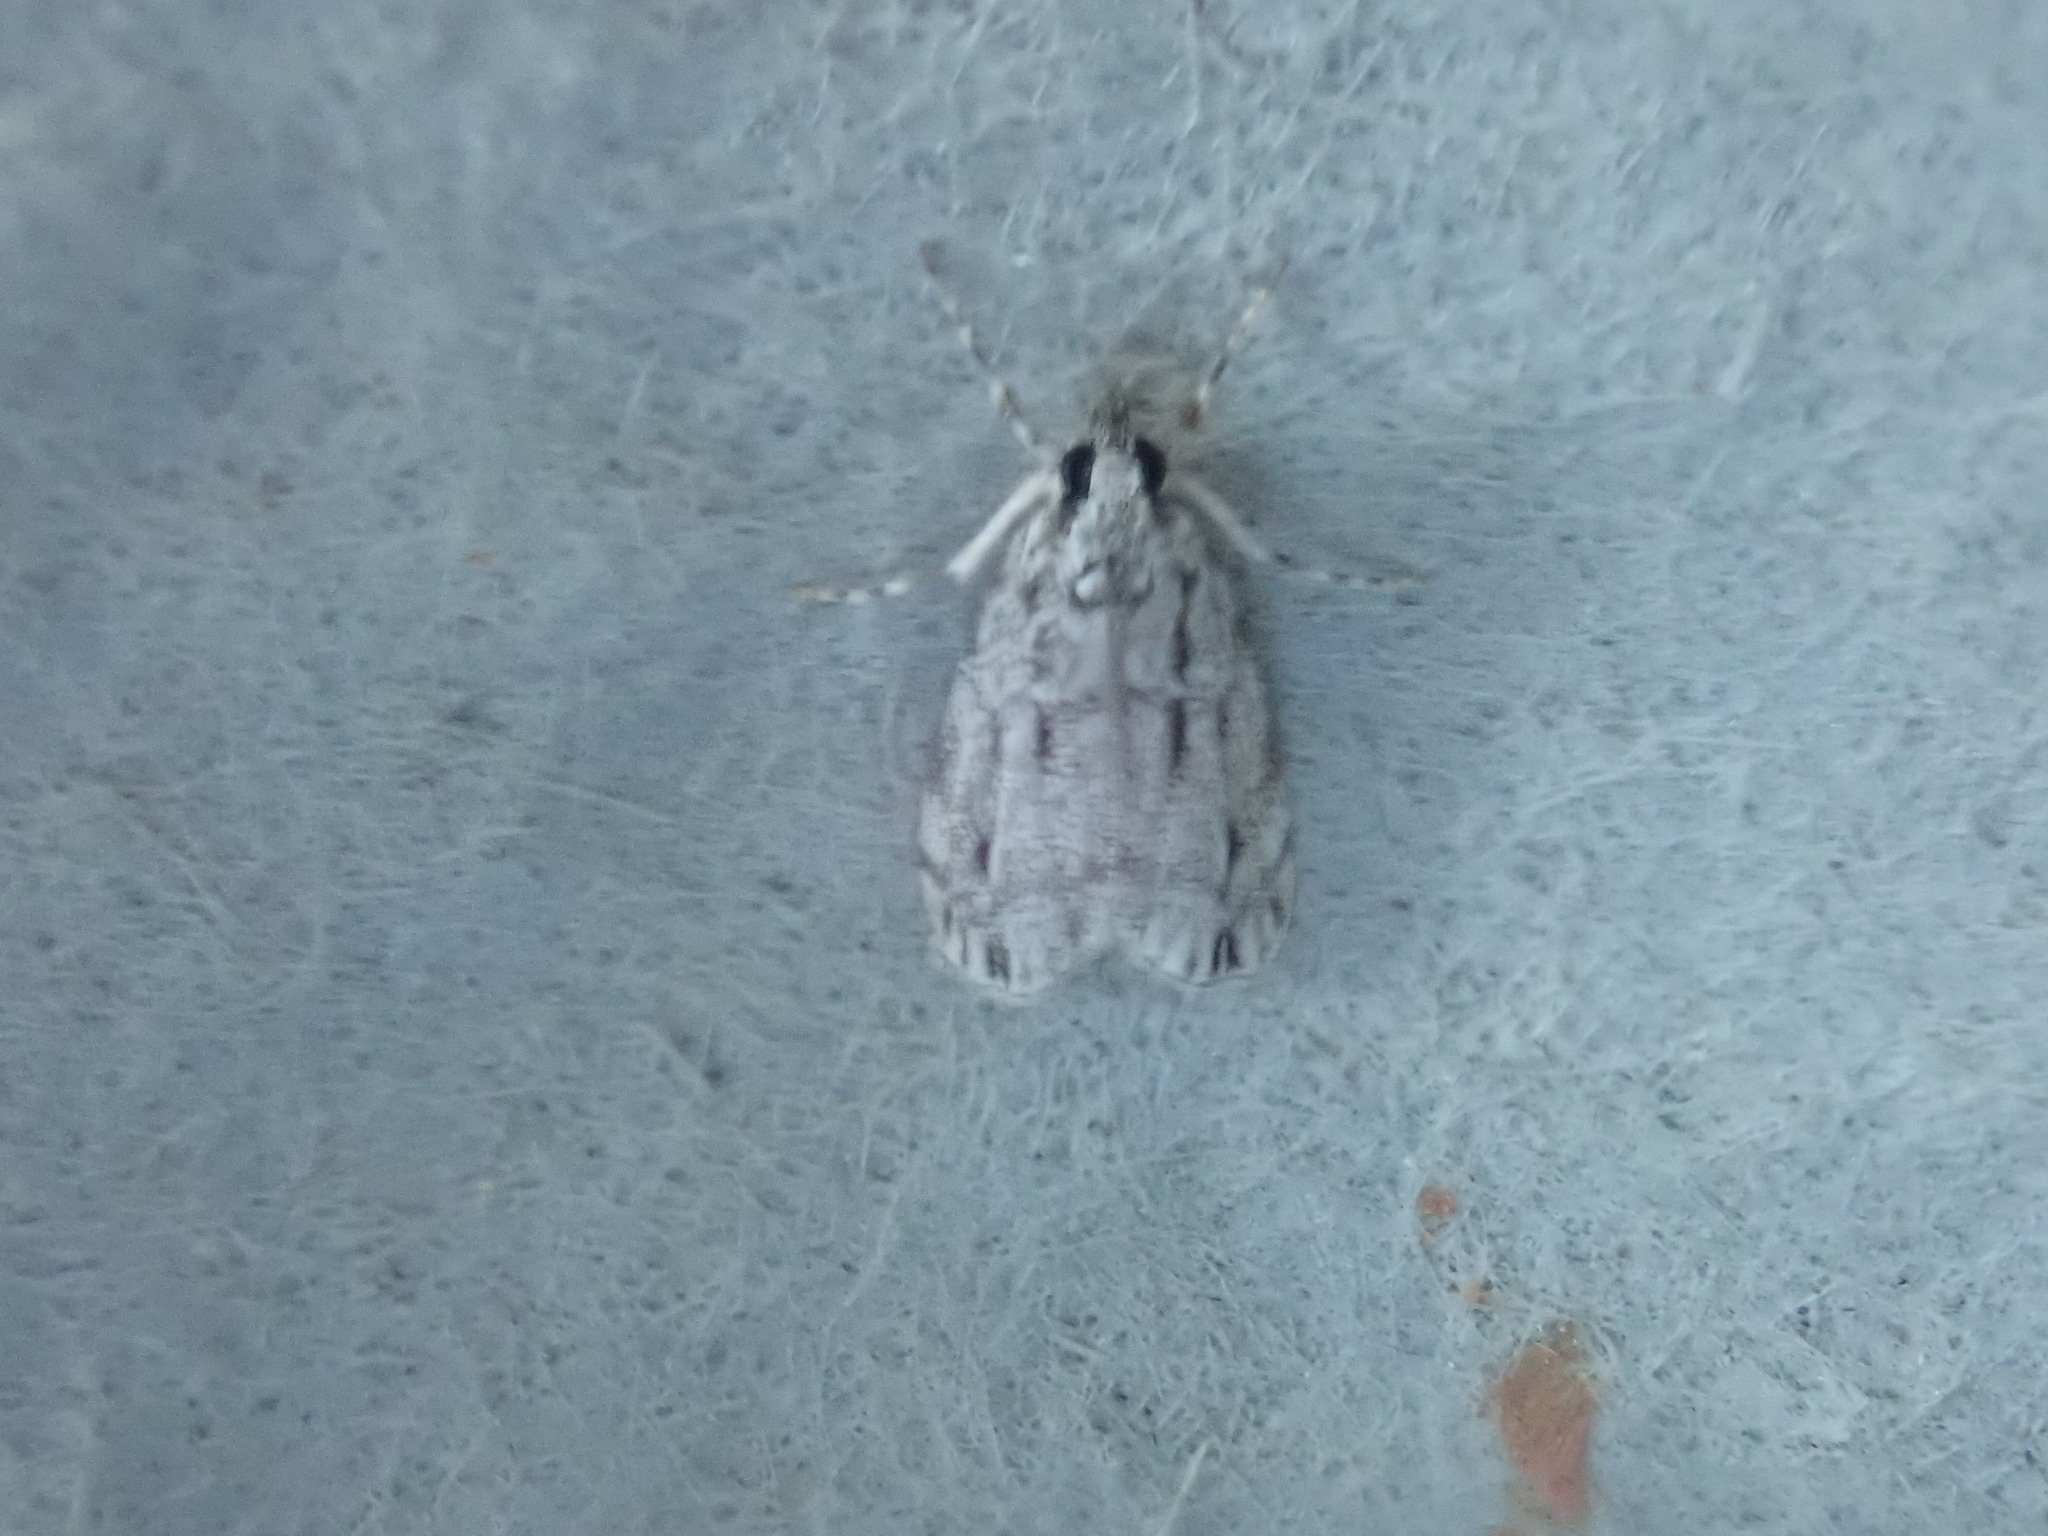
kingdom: Animalia
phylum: Arthropoda
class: Insecta
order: Lepidoptera
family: Crambidae
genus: Eudonia
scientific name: Eudonia strigalis
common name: Striped eudonia moth
